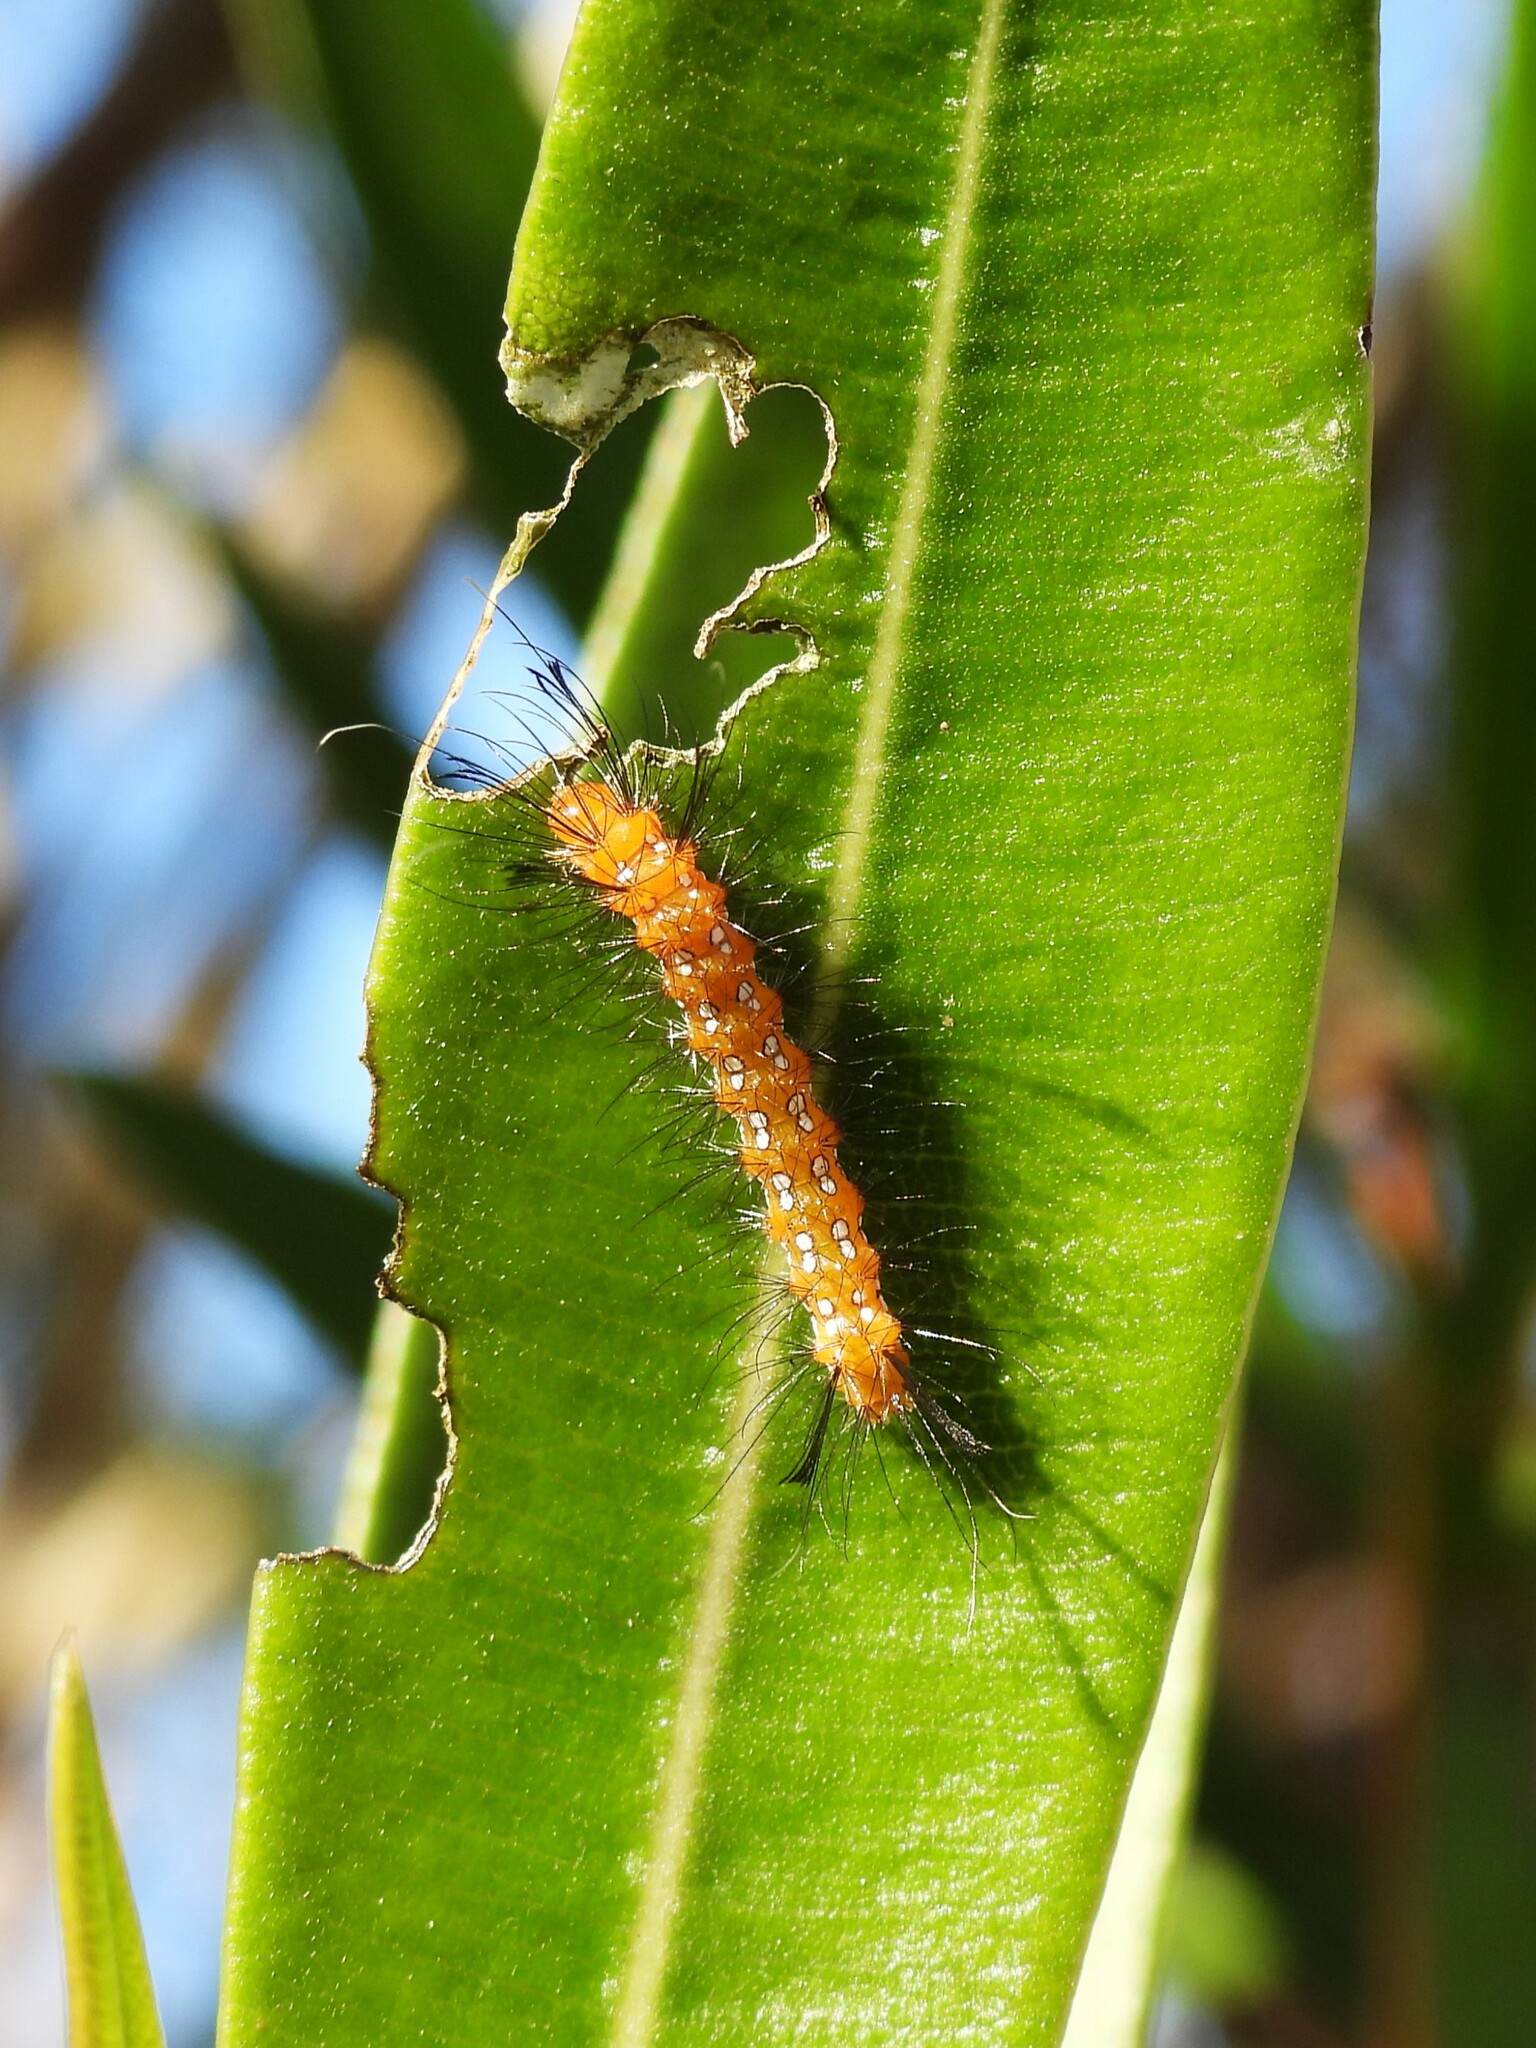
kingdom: Animalia
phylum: Arthropoda
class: Insecta
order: Lepidoptera
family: Erebidae
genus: Empyreuma
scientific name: Empyreuma pugione
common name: Spotted oleander caterpillar moth
